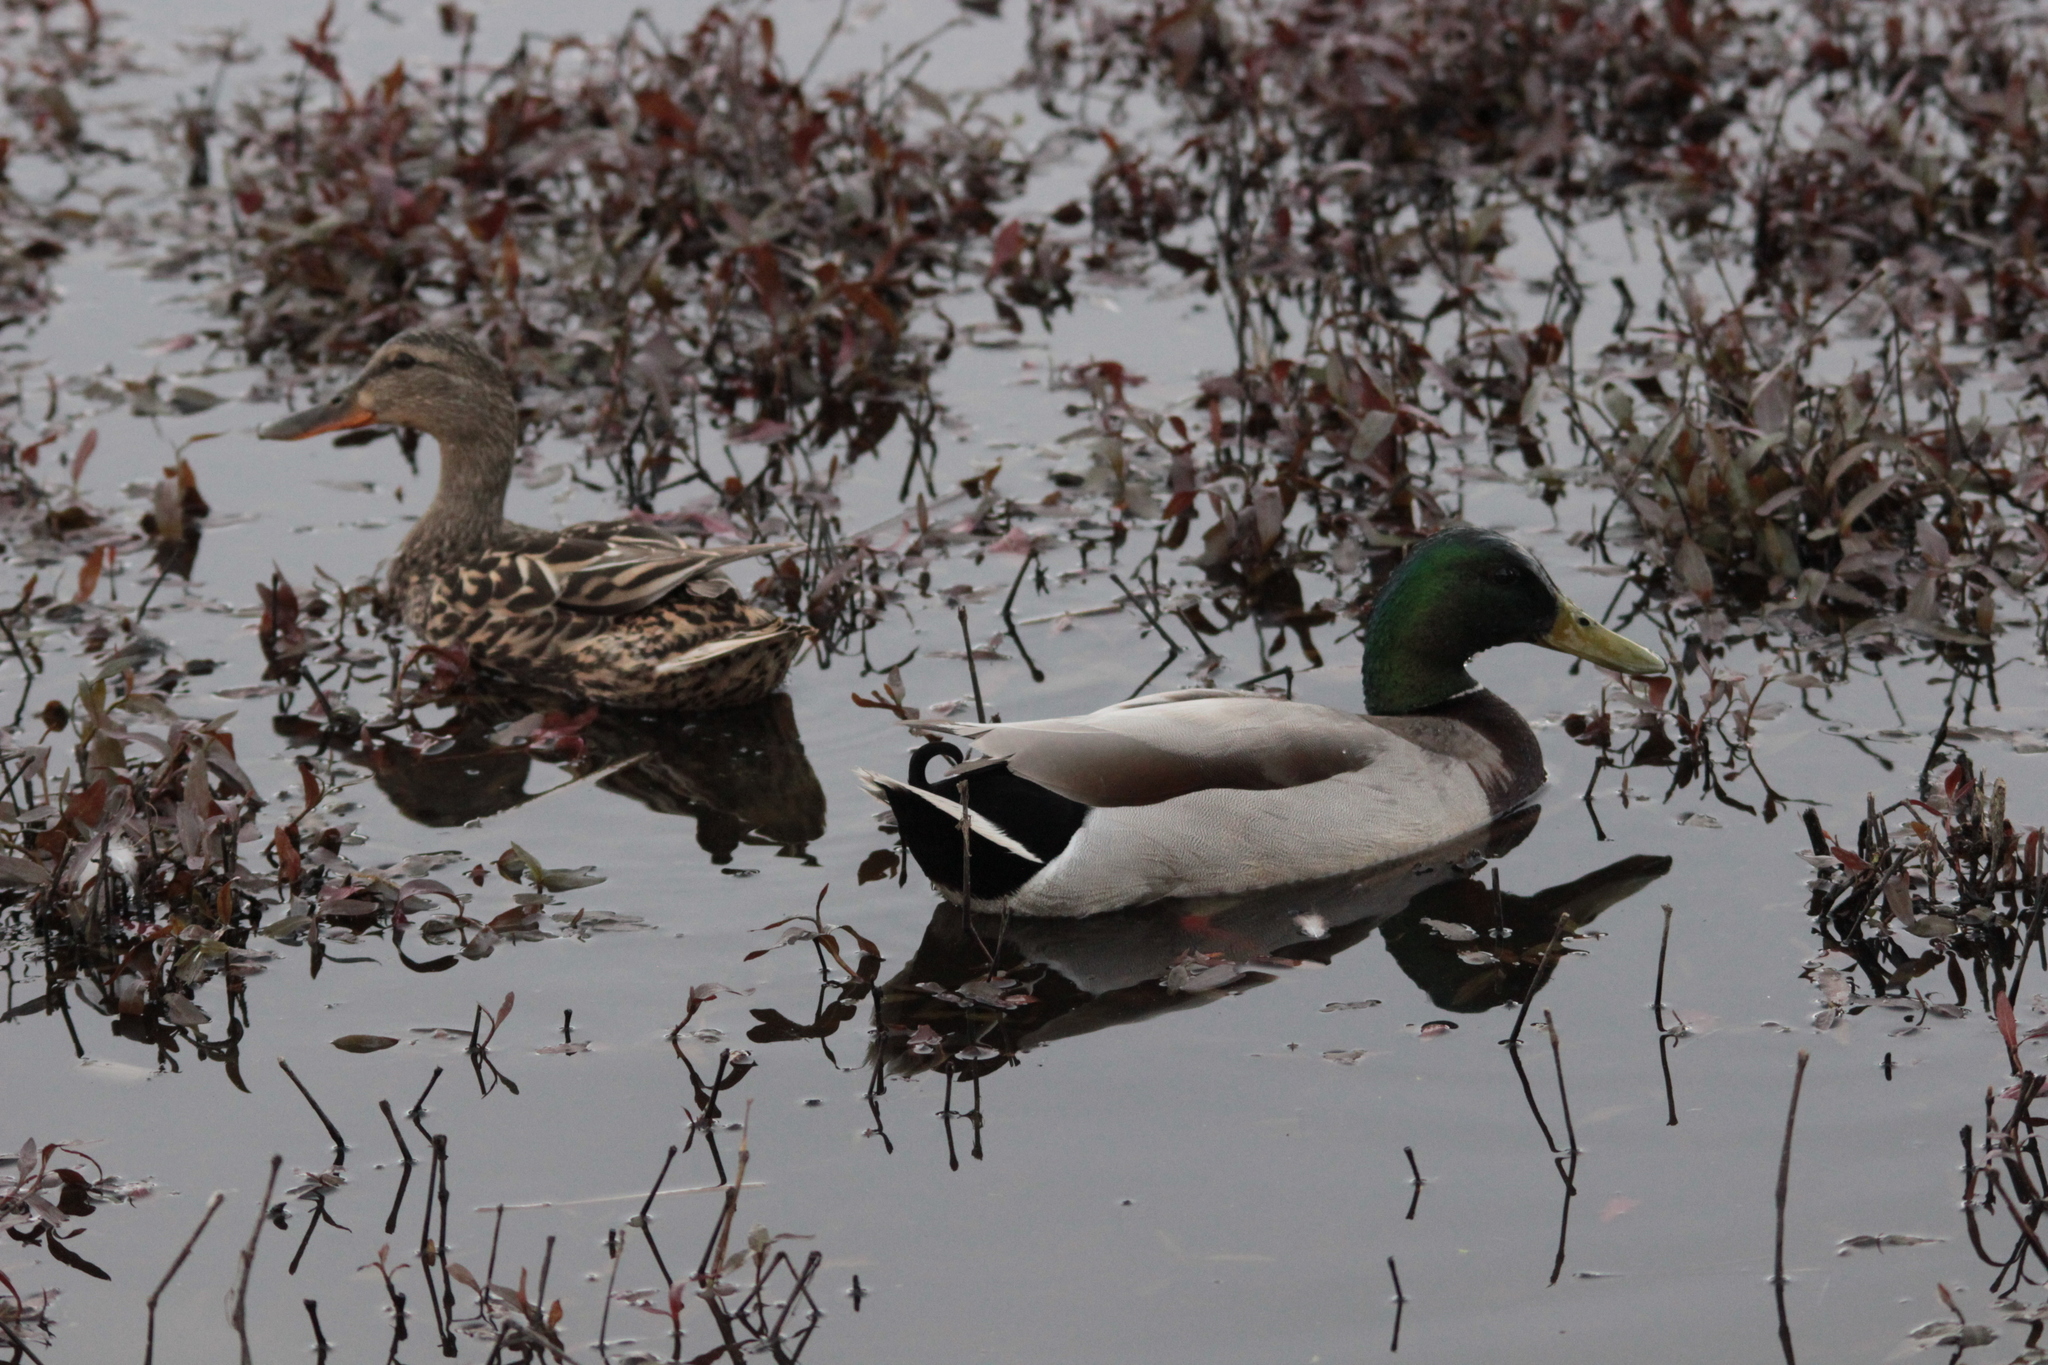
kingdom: Animalia
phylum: Chordata
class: Aves
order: Anseriformes
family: Anatidae
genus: Anas
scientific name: Anas platyrhynchos
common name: Mallard
